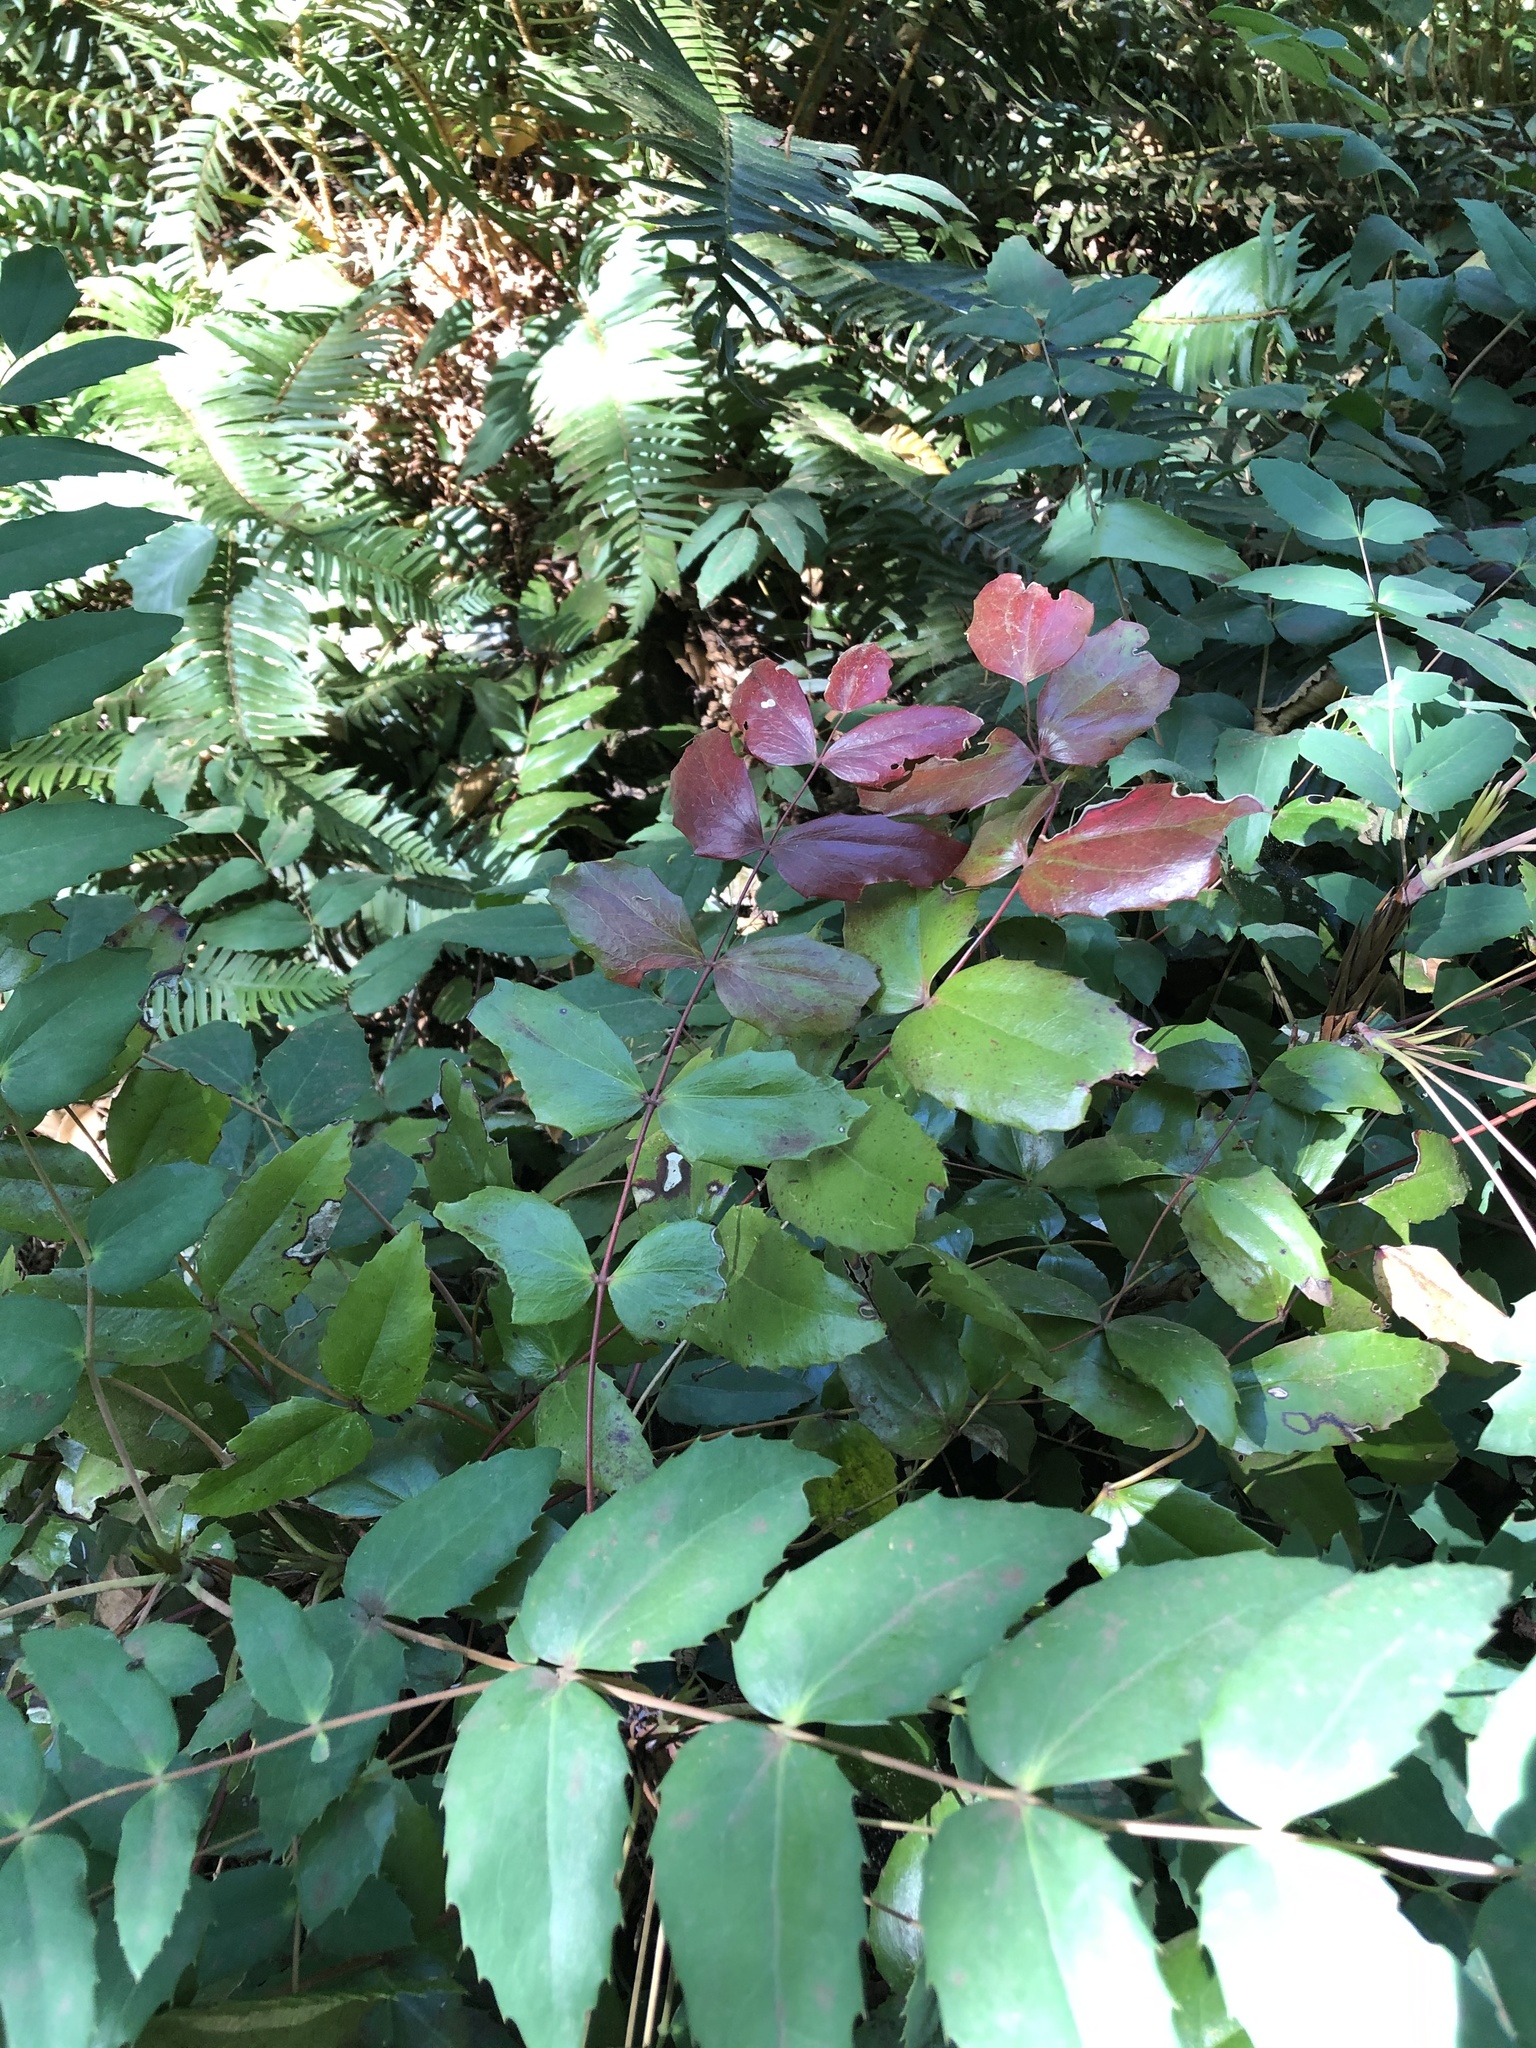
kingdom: Plantae
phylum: Tracheophyta
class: Magnoliopsida
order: Ranunculales
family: Berberidaceae
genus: Mahonia
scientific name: Mahonia nervosa
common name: Cascade oregon-grape
